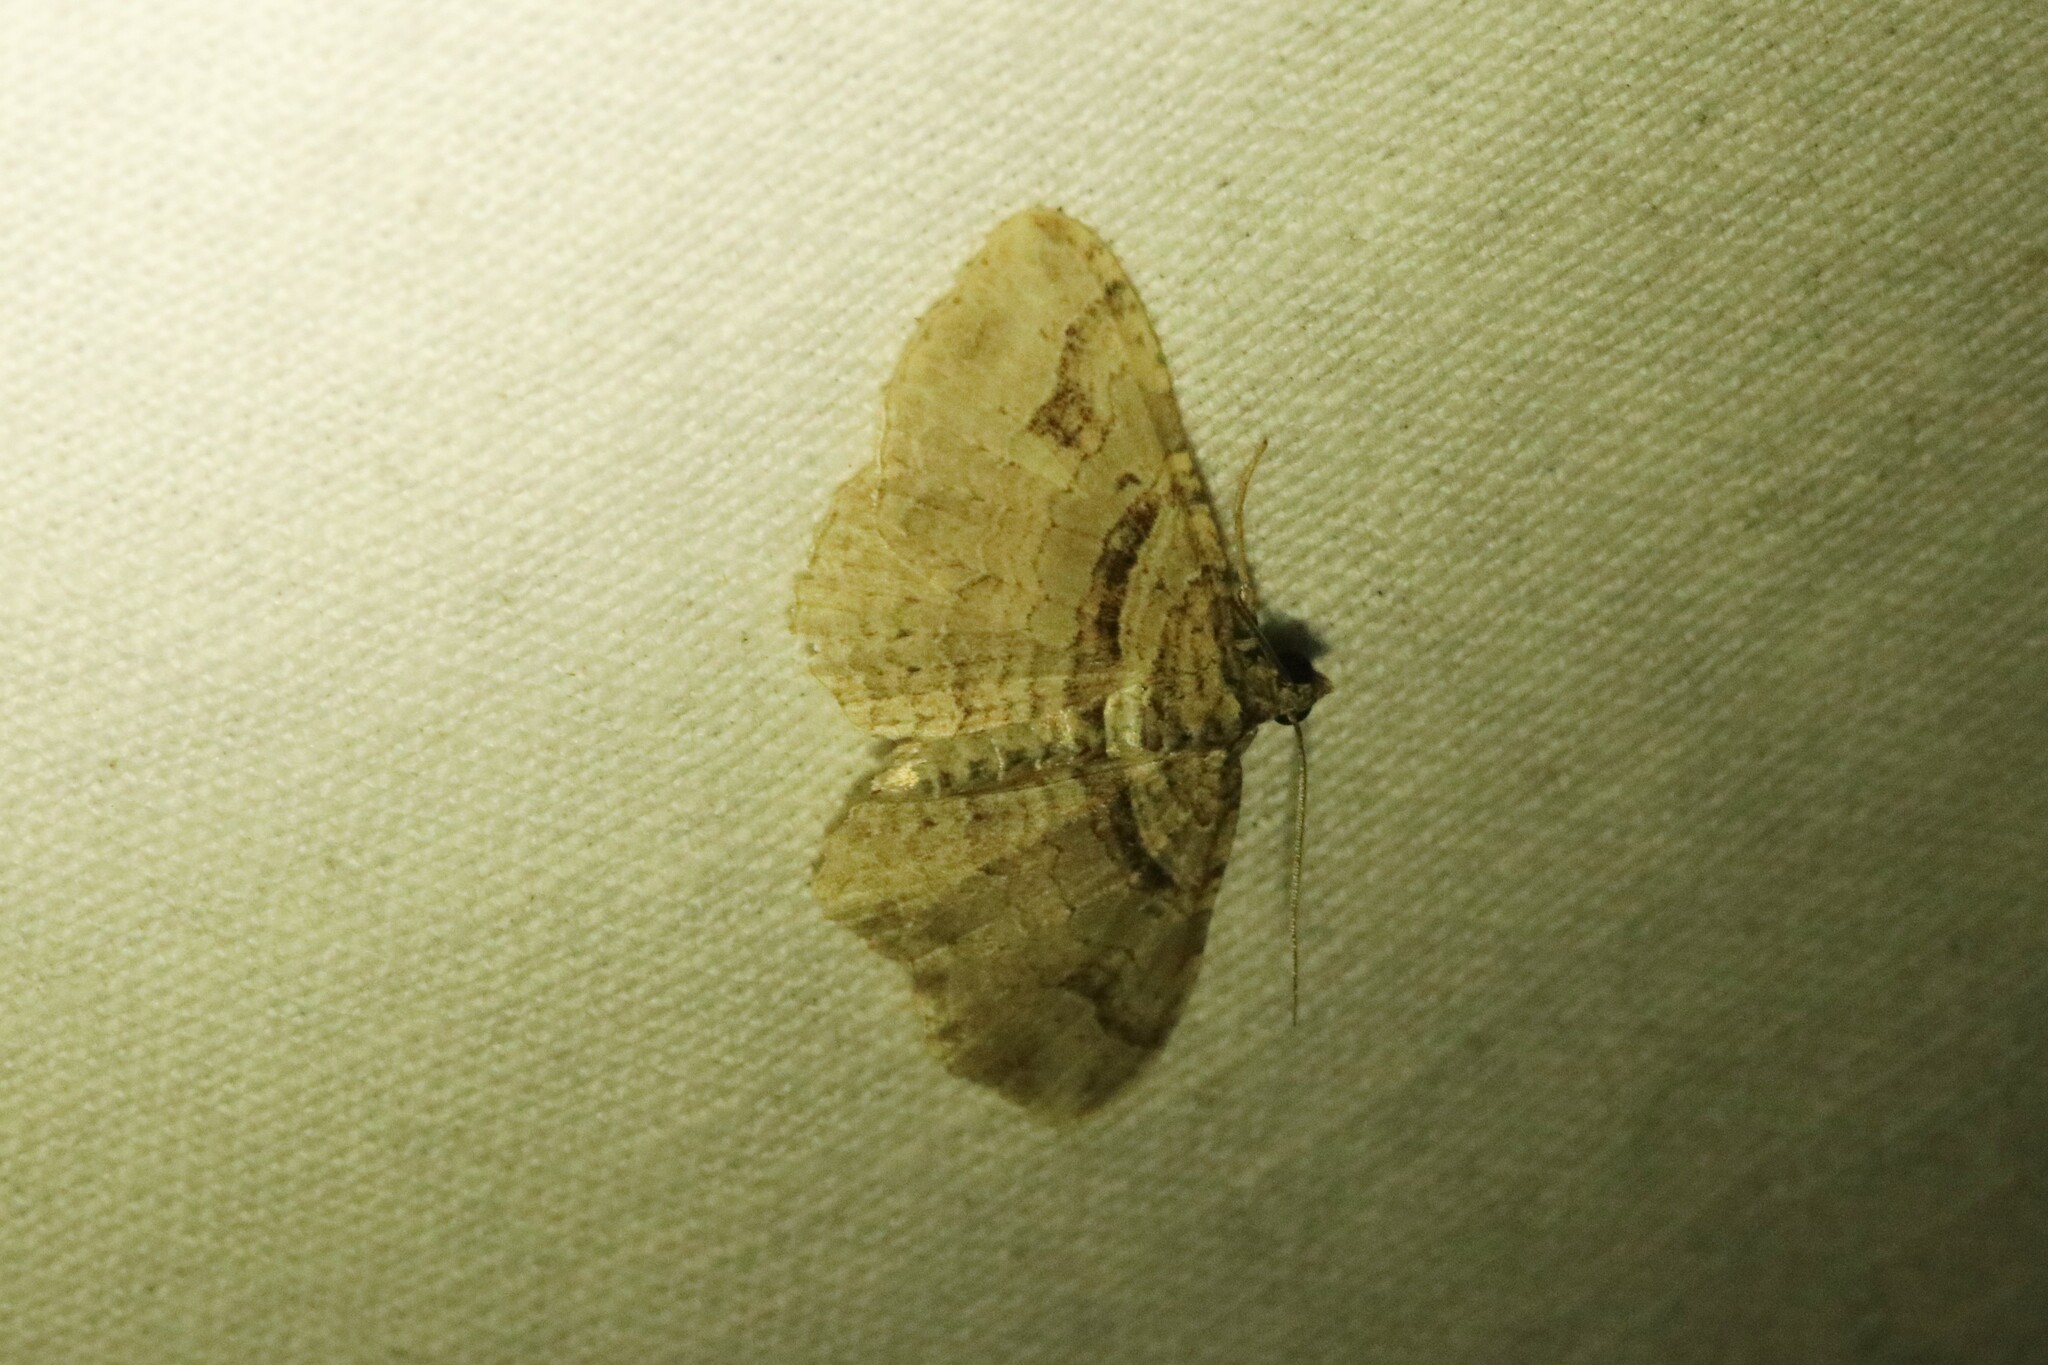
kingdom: Animalia
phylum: Arthropoda
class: Insecta
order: Lepidoptera
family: Geometridae
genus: Costaconvexa
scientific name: Costaconvexa centrostrigaria
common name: Bent-line carpet
